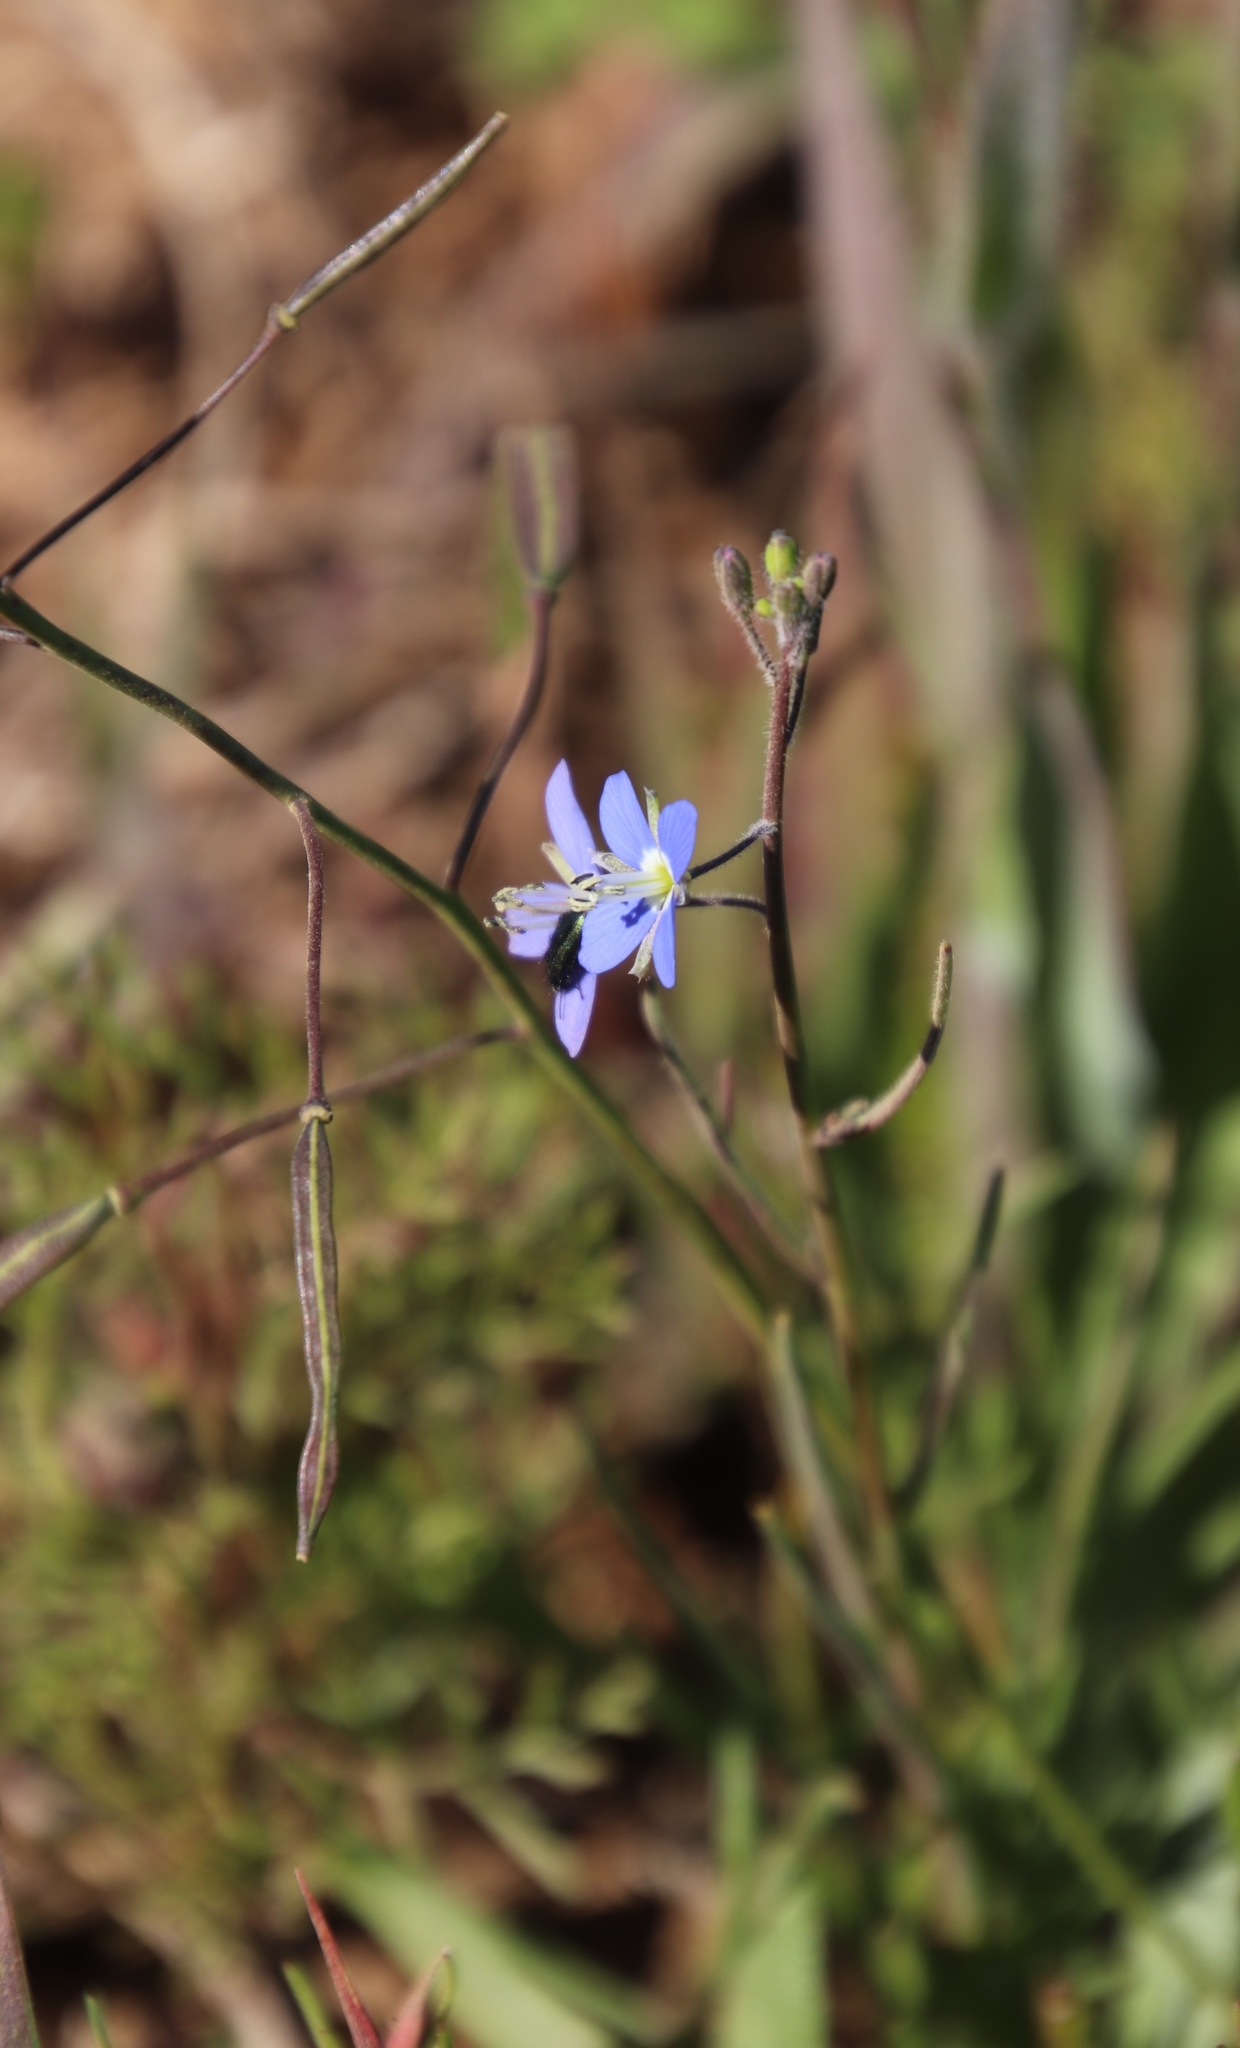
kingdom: Plantae
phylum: Tracheophyta
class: Magnoliopsida
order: Brassicales
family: Brassicaceae
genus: Heliophila
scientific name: Heliophila decurva
